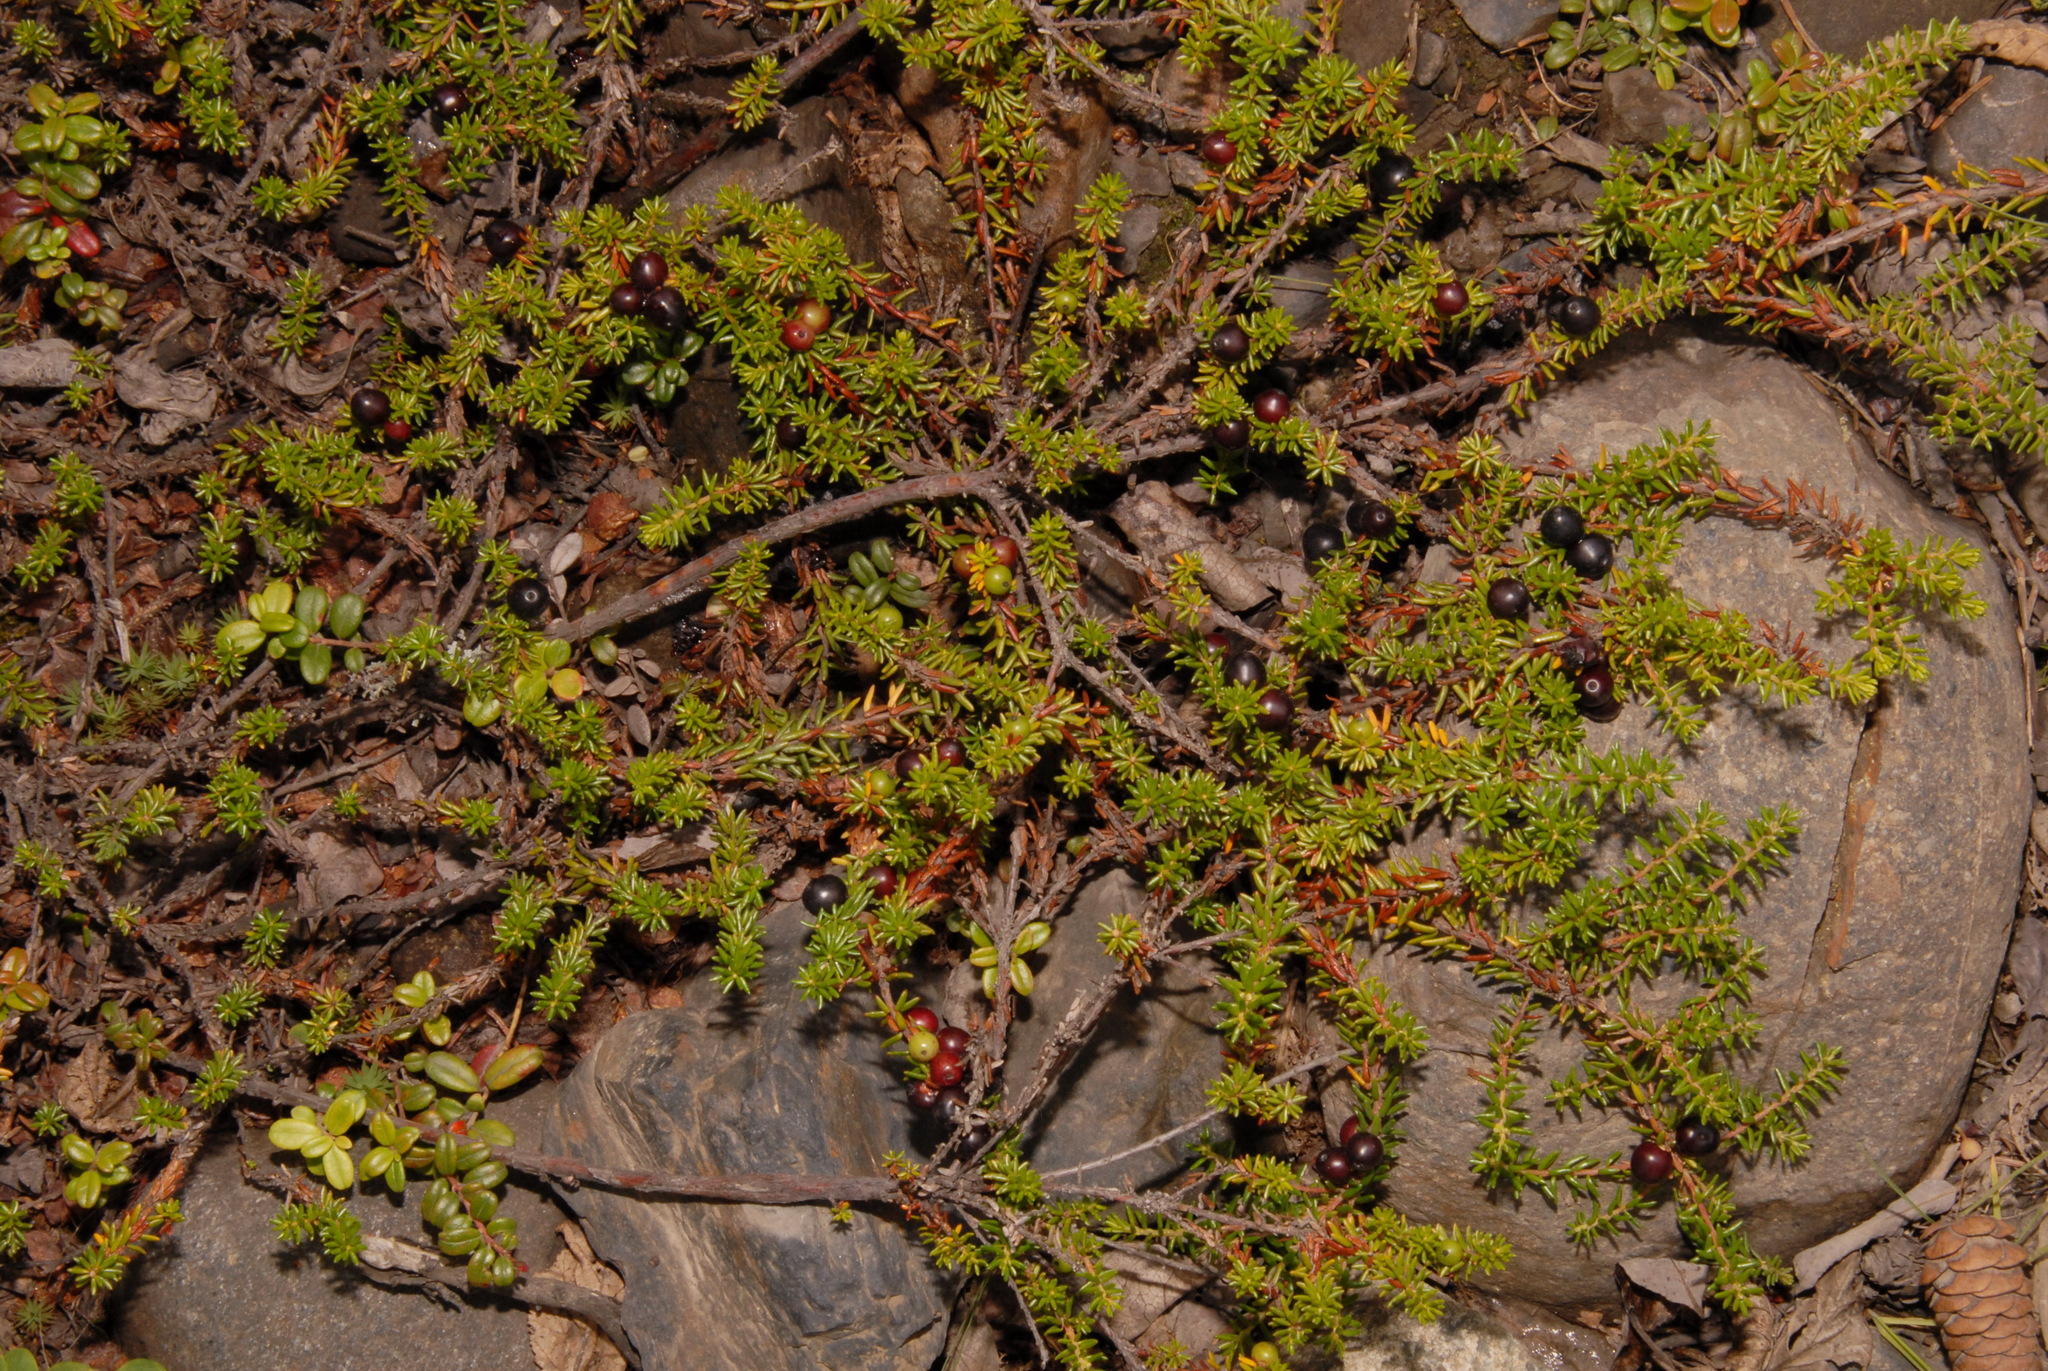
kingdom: Plantae
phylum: Tracheophyta
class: Magnoliopsida
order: Ericales
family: Ericaceae
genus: Empetrum
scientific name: Empetrum nigrum
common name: Black crowberry
